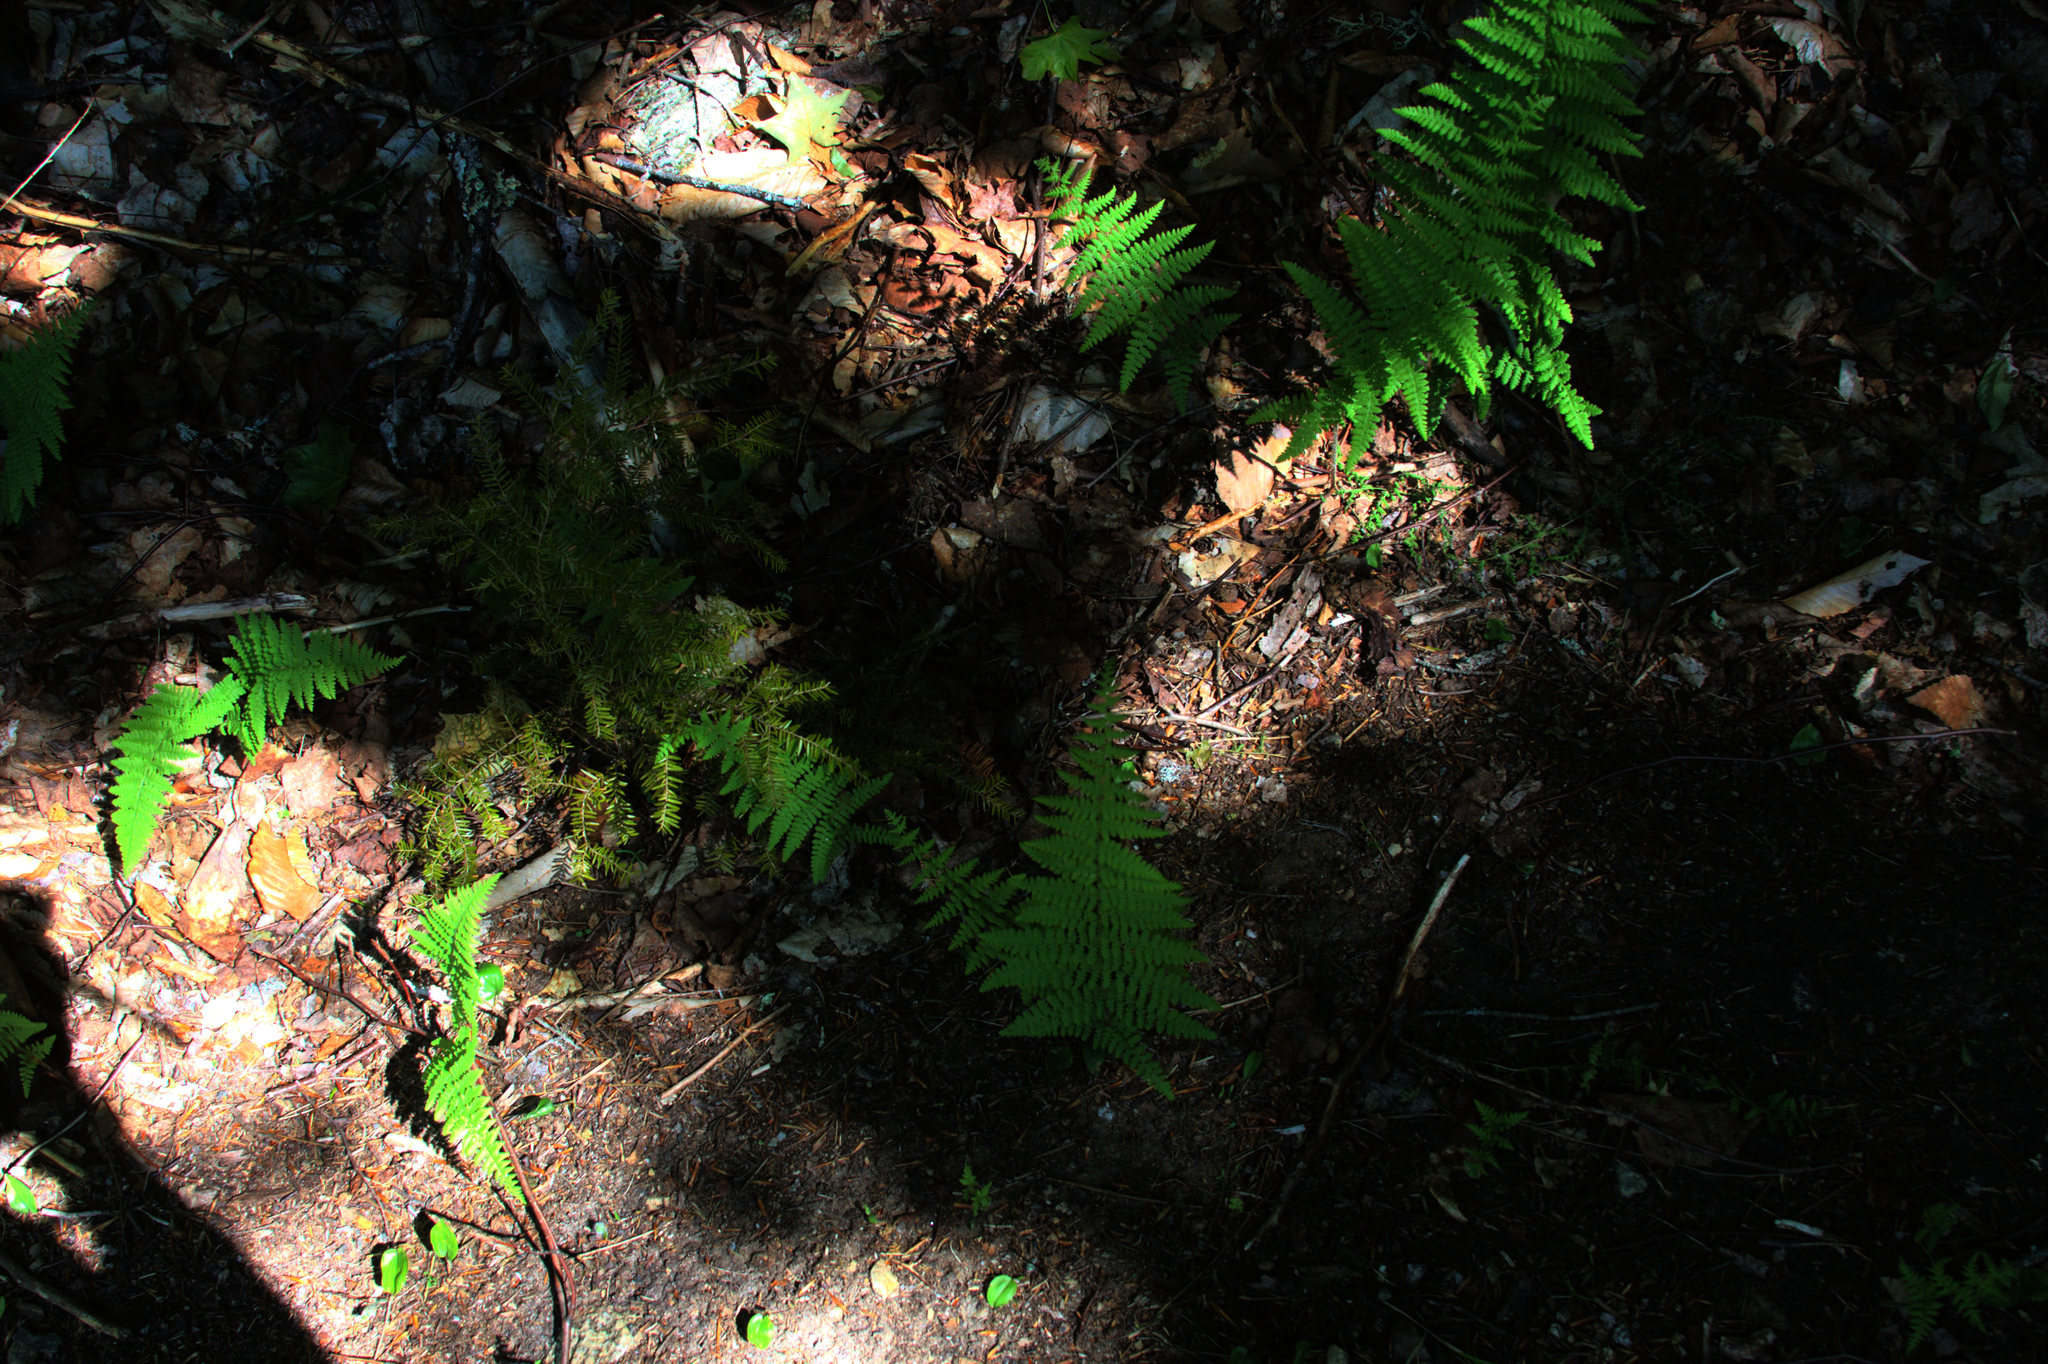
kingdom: Plantae
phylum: Tracheophyta
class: Polypodiopsida
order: Polypodiales
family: Dennstaedtiaceae
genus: Sitobolium
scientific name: Sitobolium punctilobum
